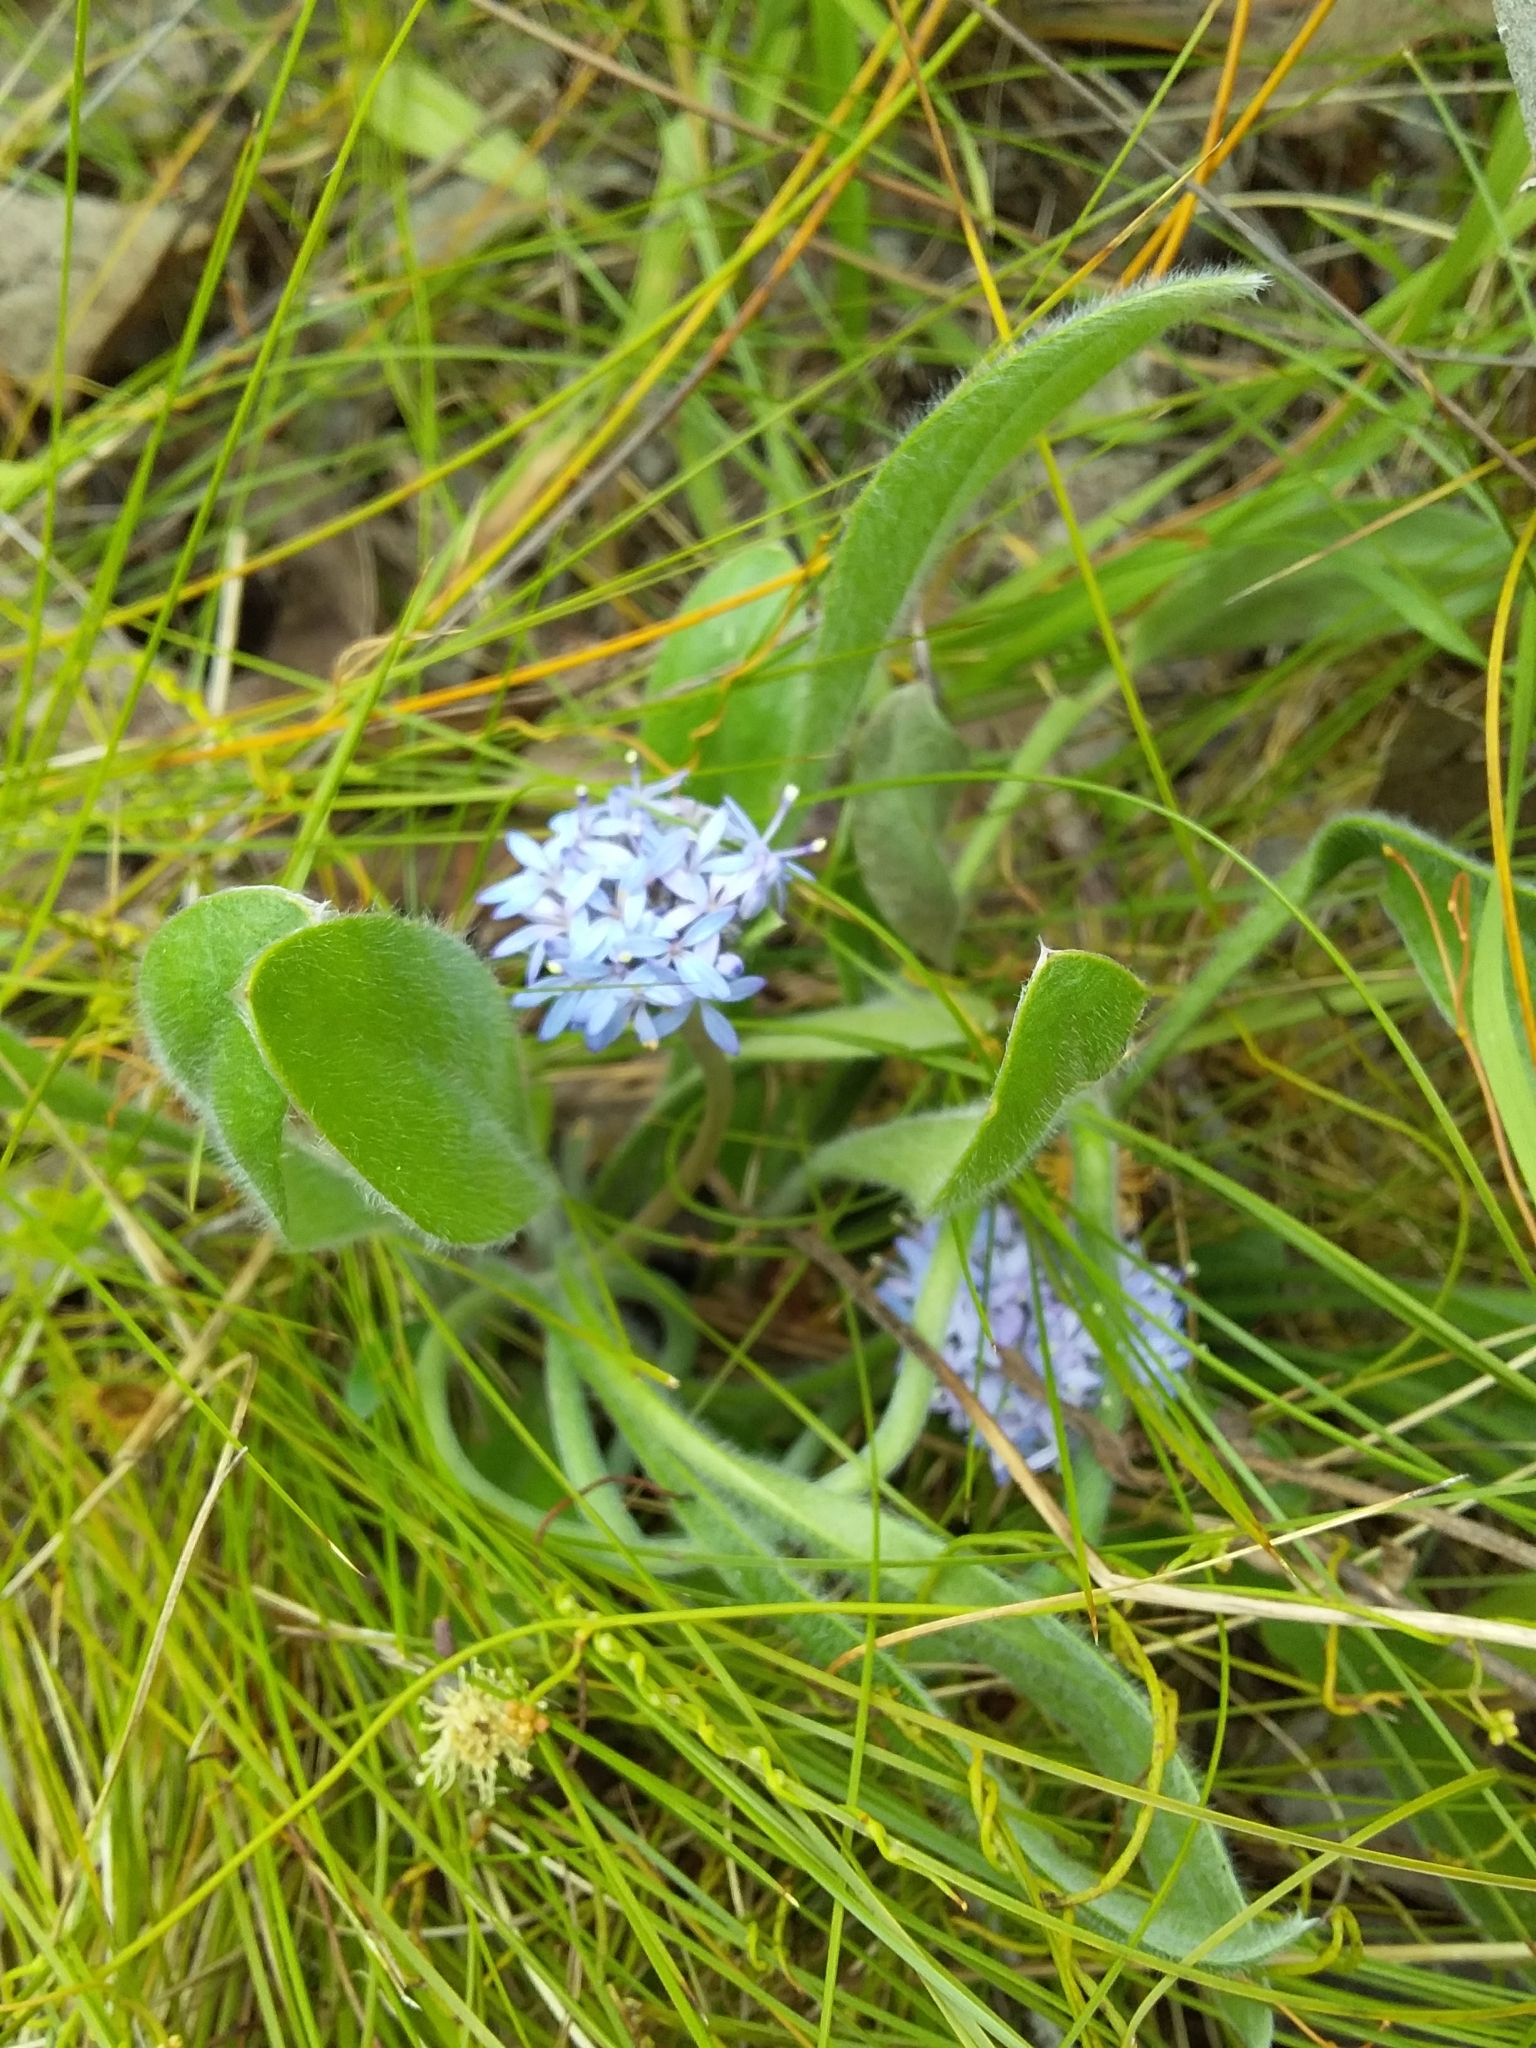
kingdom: Plantae
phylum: Tracheophyta
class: Magnoliopsida
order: Asterales
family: Goodeniaceae
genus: Brunonia
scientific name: Brunonia australis
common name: Blue pincushion
